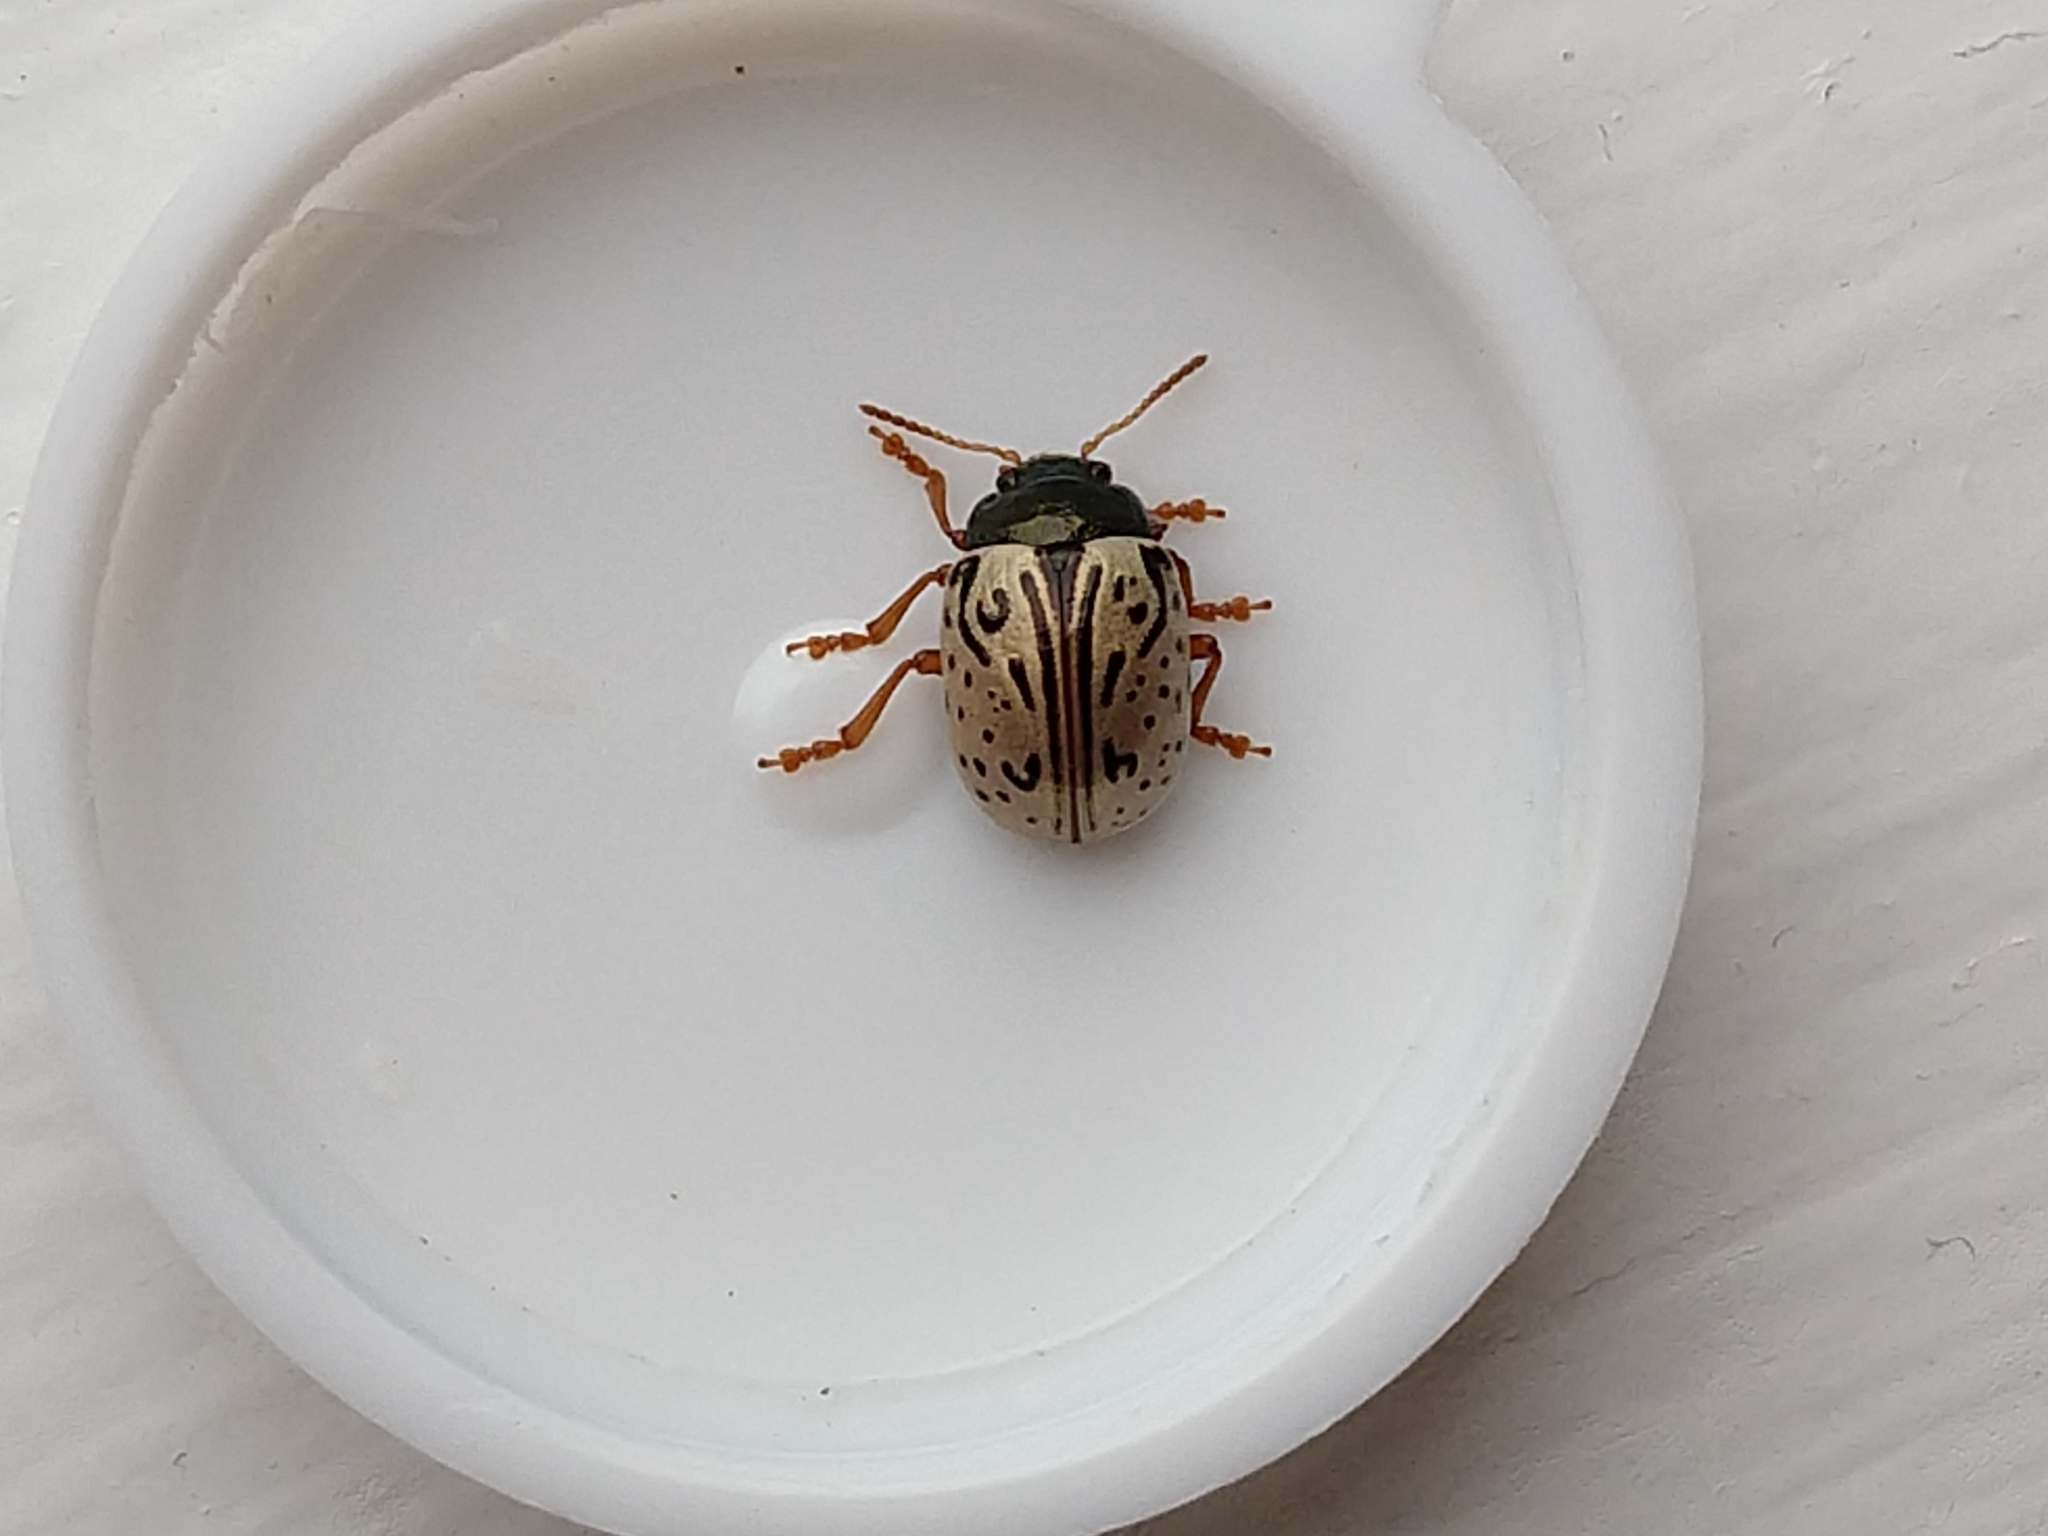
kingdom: Animalia
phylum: Arthropoda
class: Insecta
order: Coleoptera
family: Chrysomelidae
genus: Calligrapha
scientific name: Calligrapha philadelphica
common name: Dogwood leaf beetle
